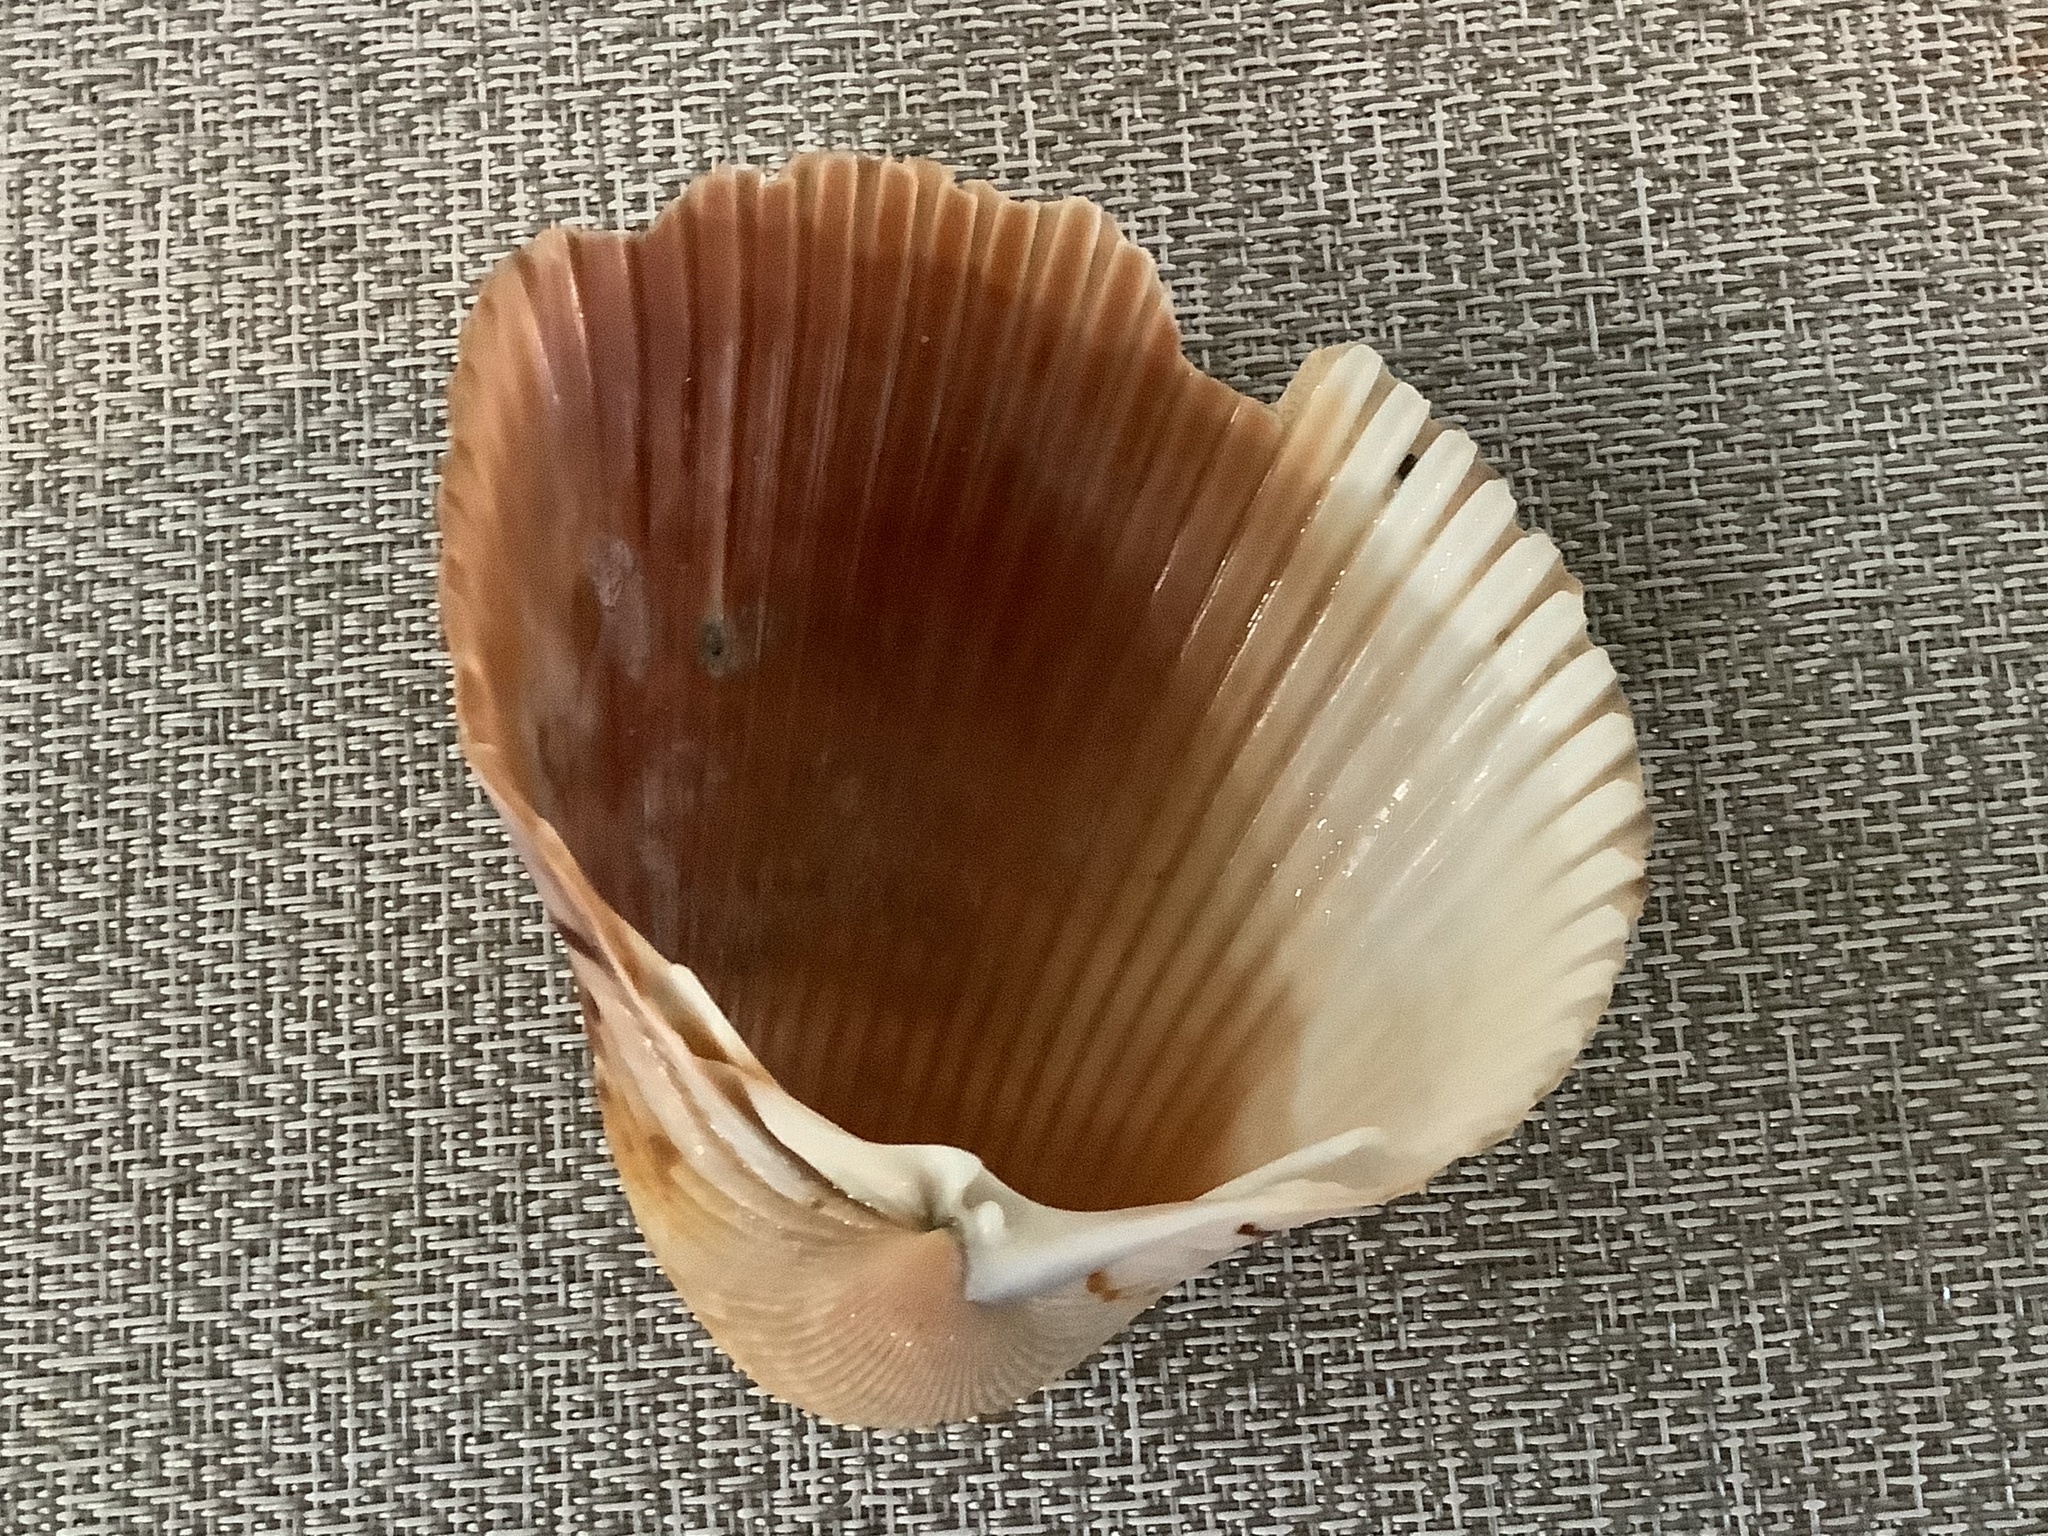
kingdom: Animalia
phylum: Mollusca
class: Bivalvia
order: Cardiida
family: Cardiidae
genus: Dinocardium
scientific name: Dinocardium robustum
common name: Atlantic giant cockle
